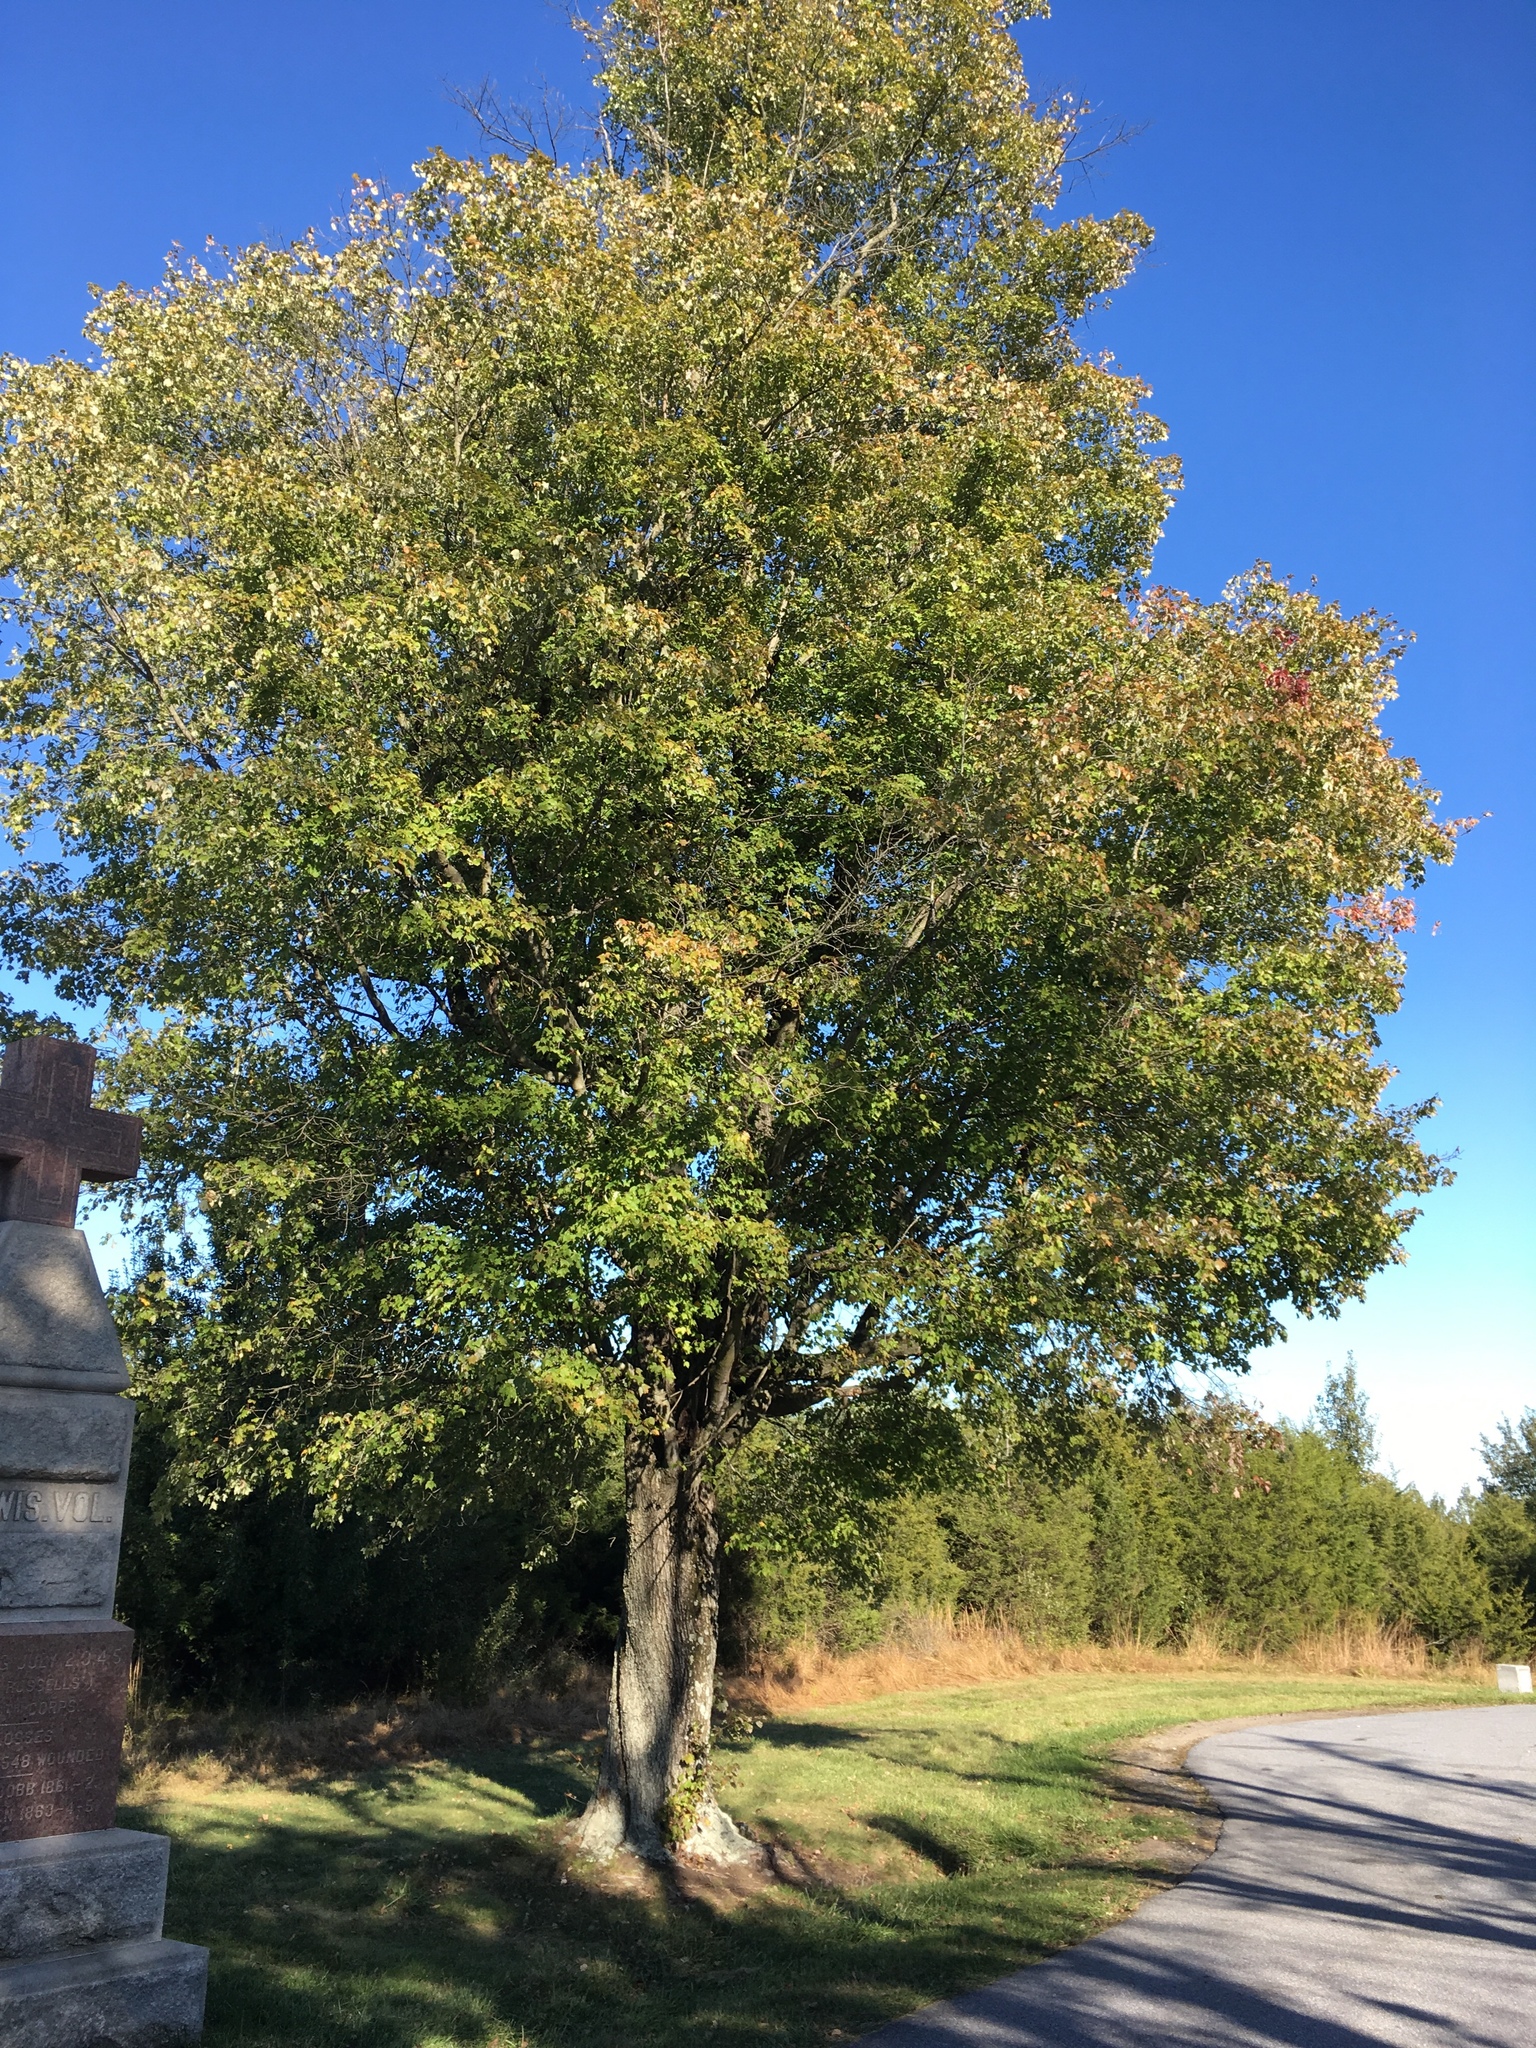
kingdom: Plantae
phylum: Tracheophyta
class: Magnoliopsida
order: Sapindales
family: Sapindaceae
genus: Acer
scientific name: Acer rubrum
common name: Red maple
